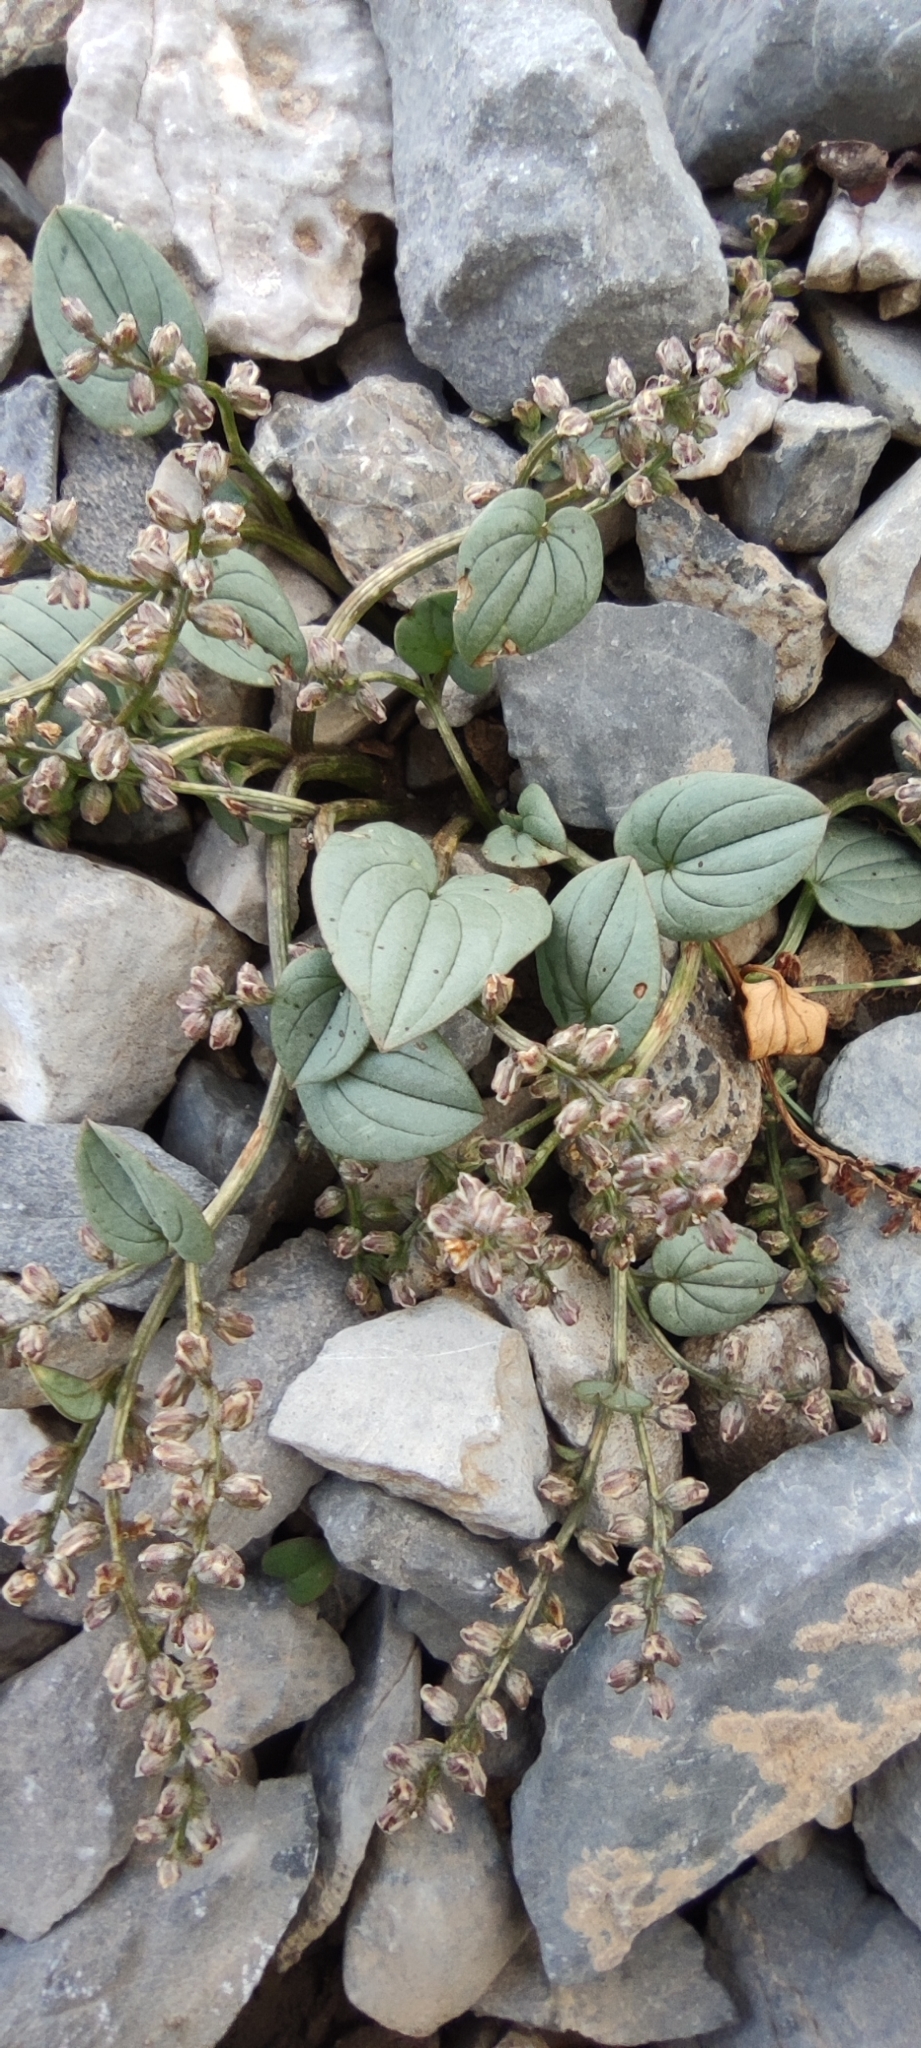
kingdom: Plantae
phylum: Tracheophyta
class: Liliopsida
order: Dioscoreales
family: Dioscoreaceae
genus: Dioscorea
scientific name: Dioscorea pyrenaica
